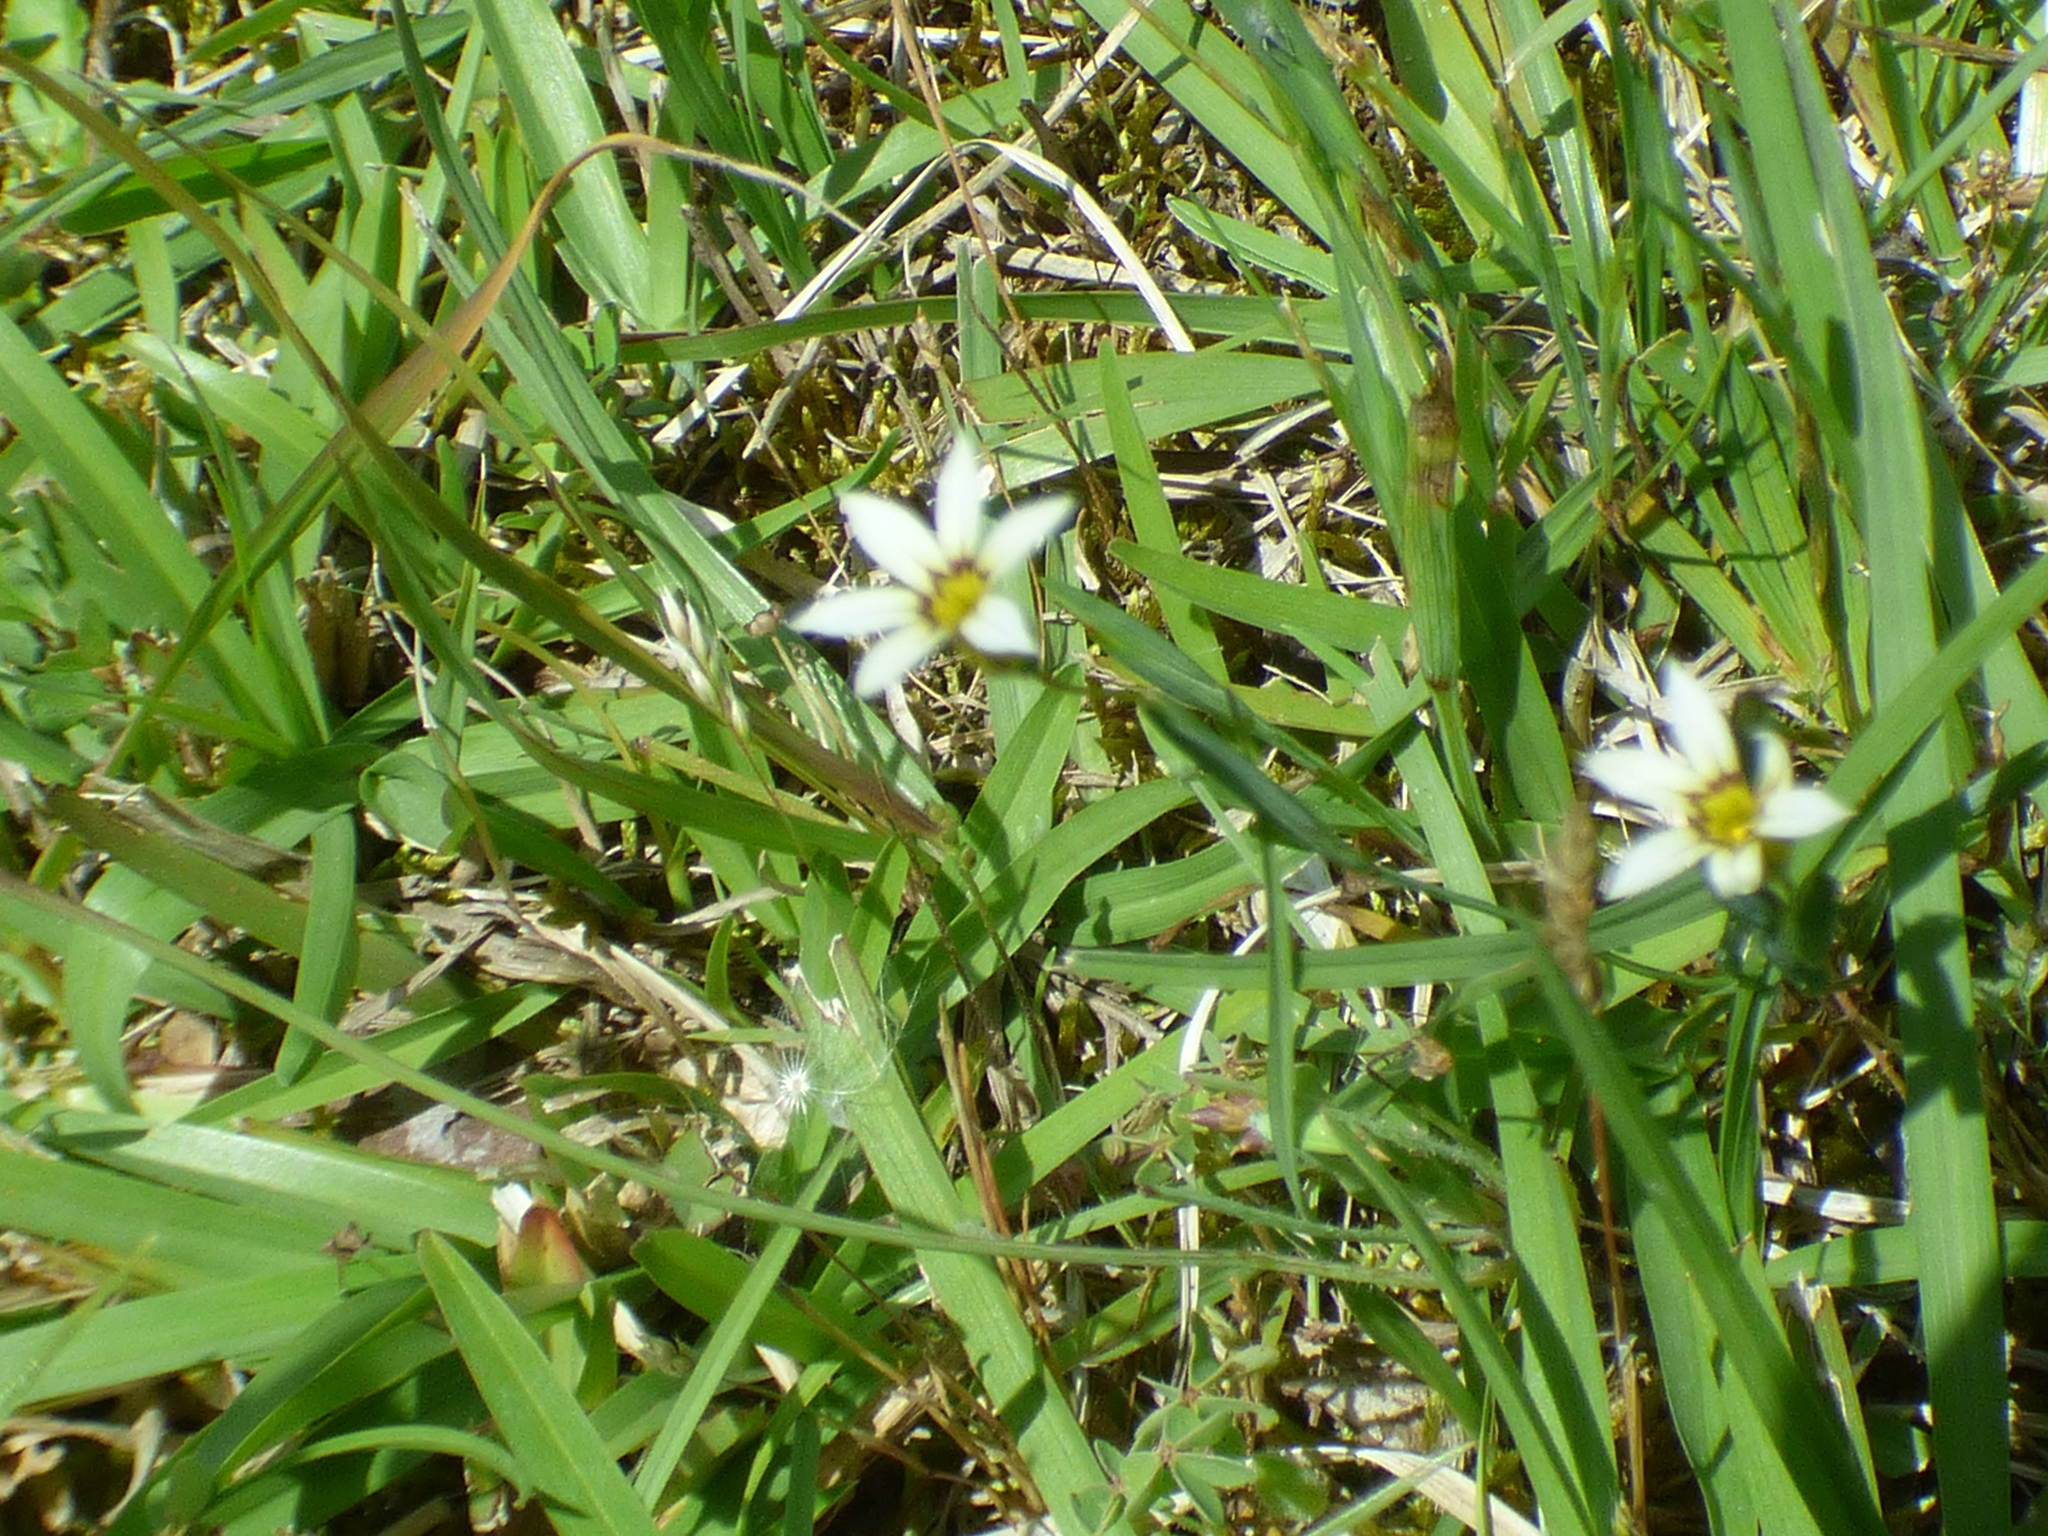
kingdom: Plantae
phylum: Tracheophyta
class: Liliopsida
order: Asparagales
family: Iridaceae
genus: Sisyrinchium
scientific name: Sisyrinchium micranthum
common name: Bermuda pigroot
